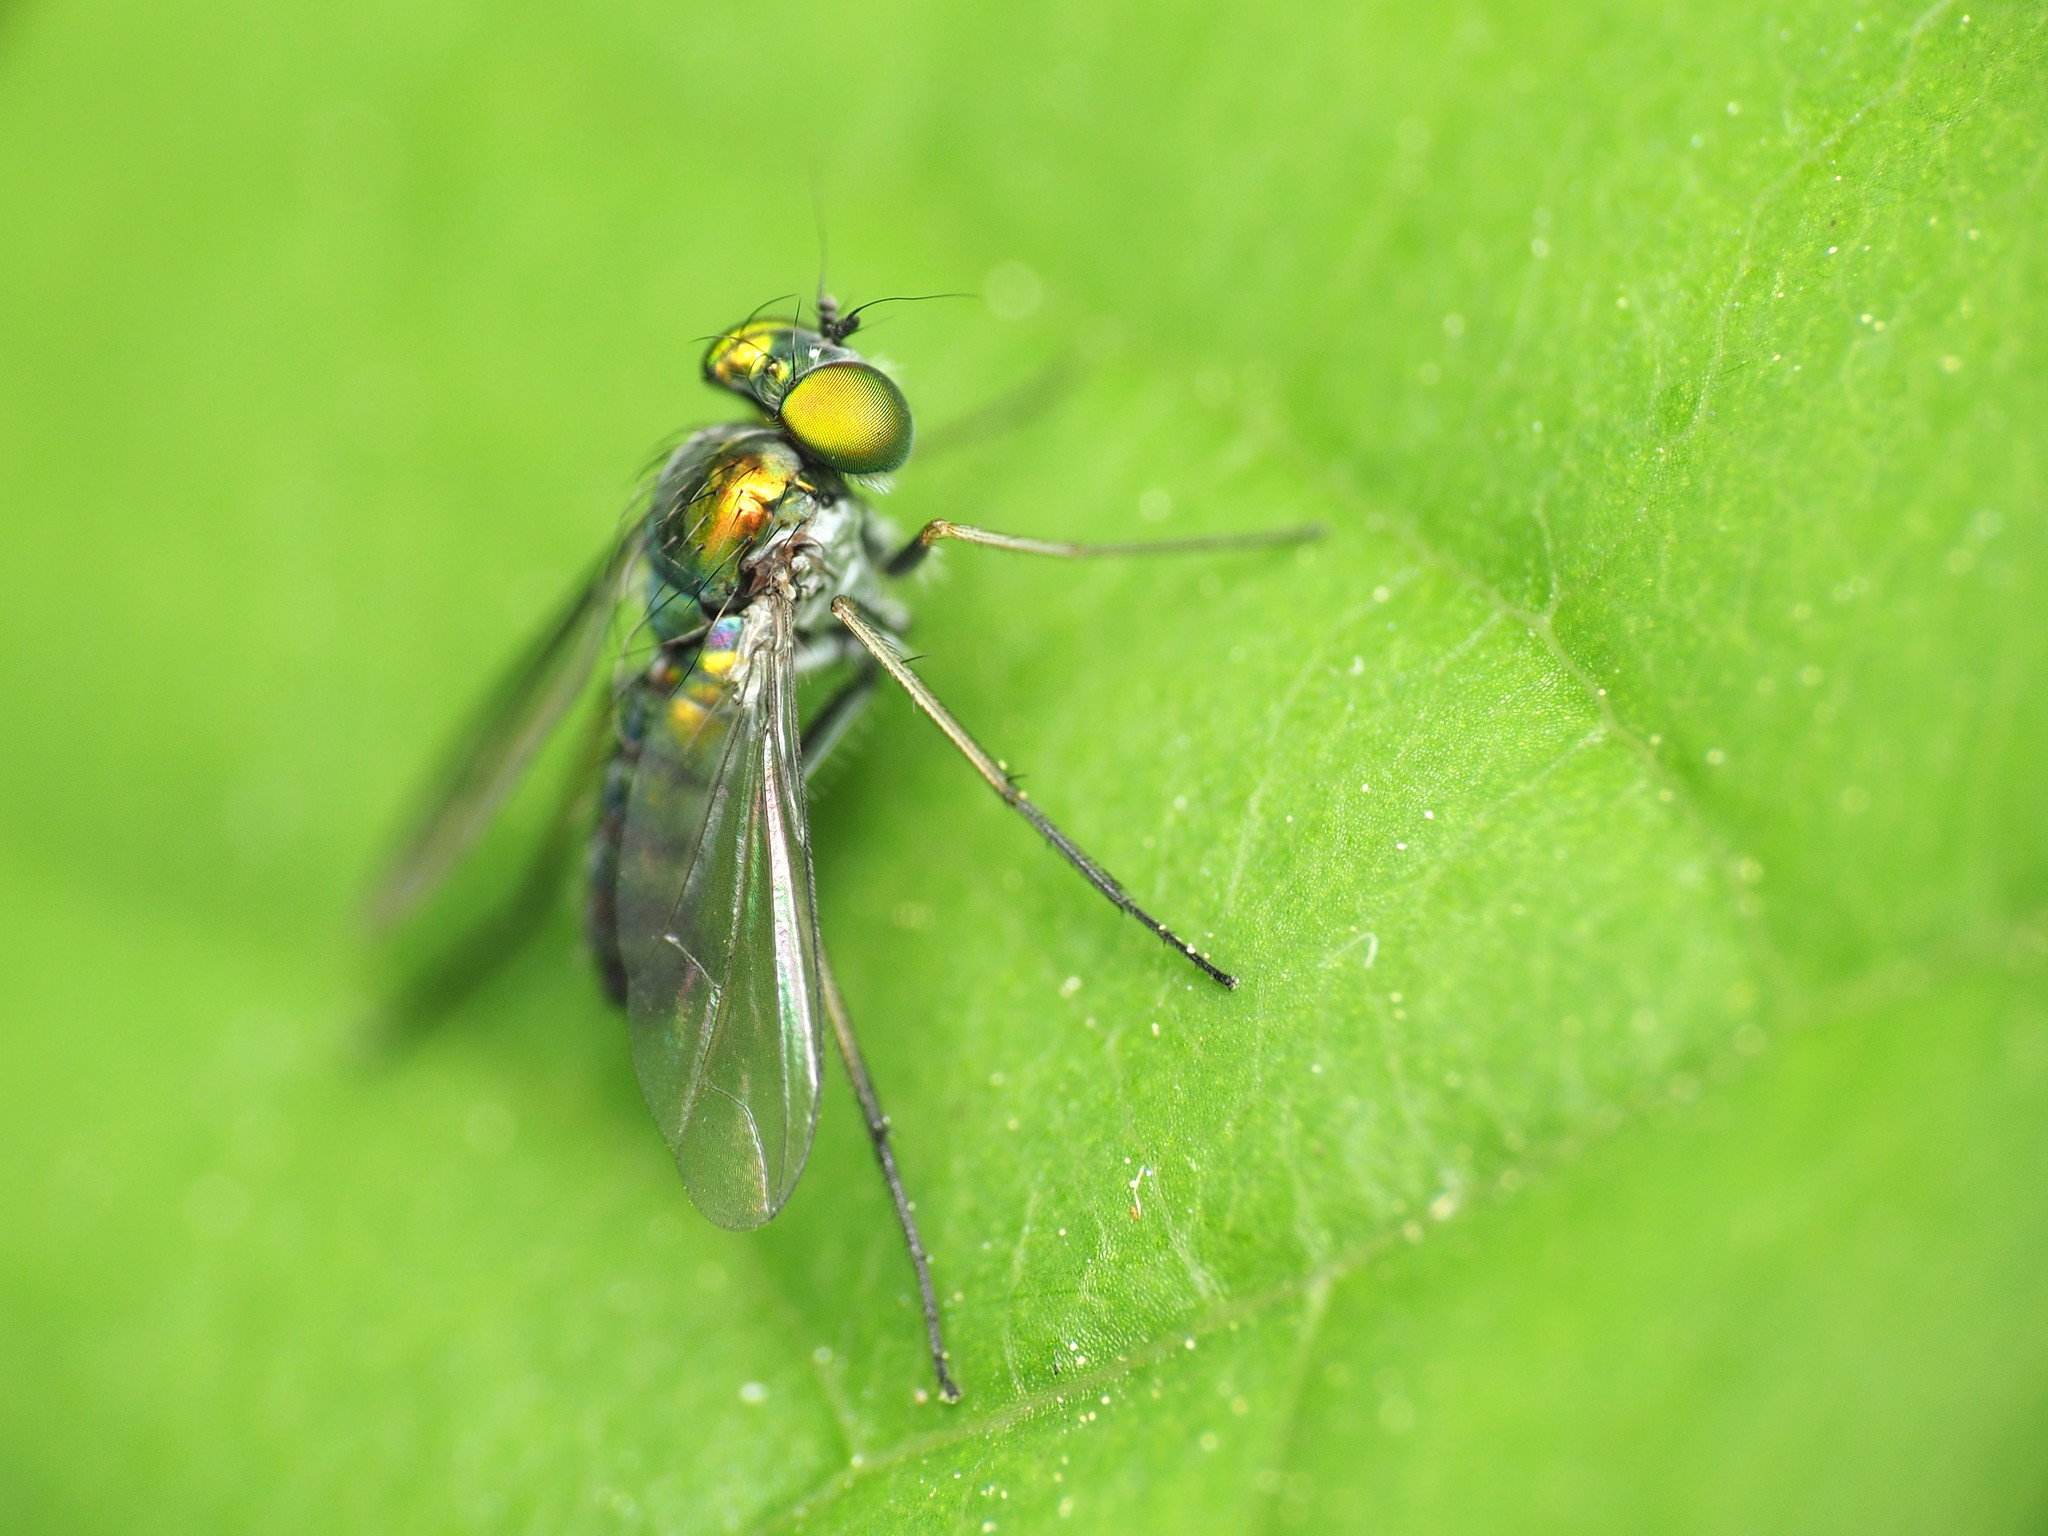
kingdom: Animalia
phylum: Arthropoda
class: Insecta
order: Diptera
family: Dolichopodidae
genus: Condylostylus
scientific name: Condylostylus caudatus
